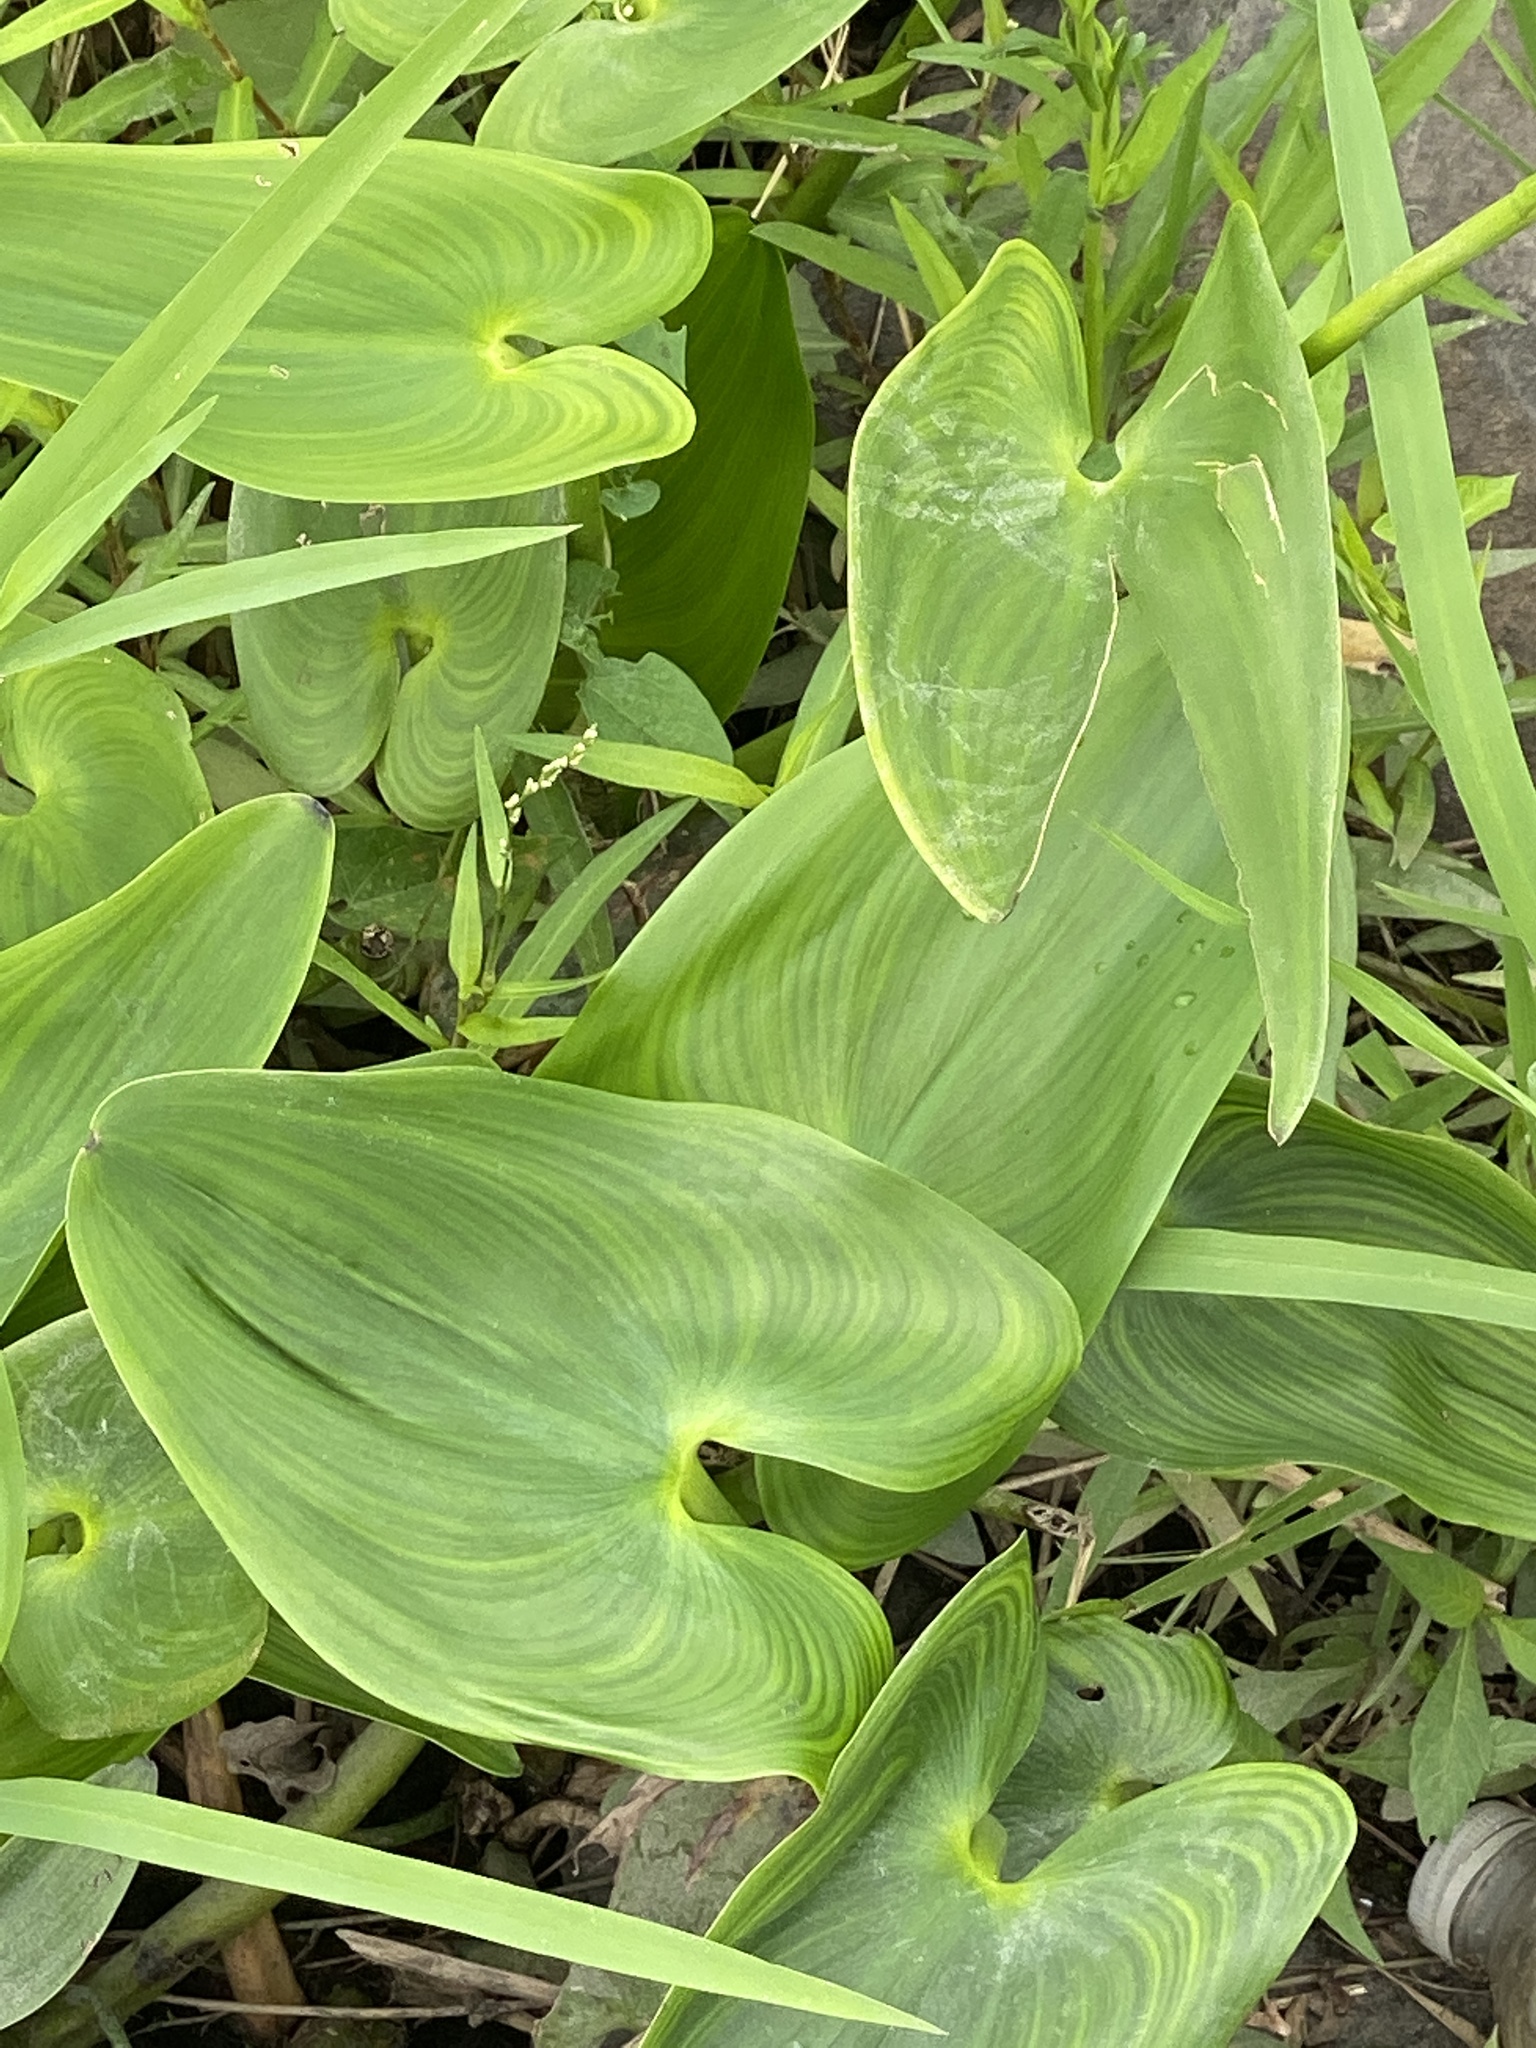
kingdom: Plantae
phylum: Tracheophyta
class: Liliopsida
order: Commelinales
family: Pontederiaceae
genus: Pontederia
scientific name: Pontederia cordata
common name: Pickerelweed
